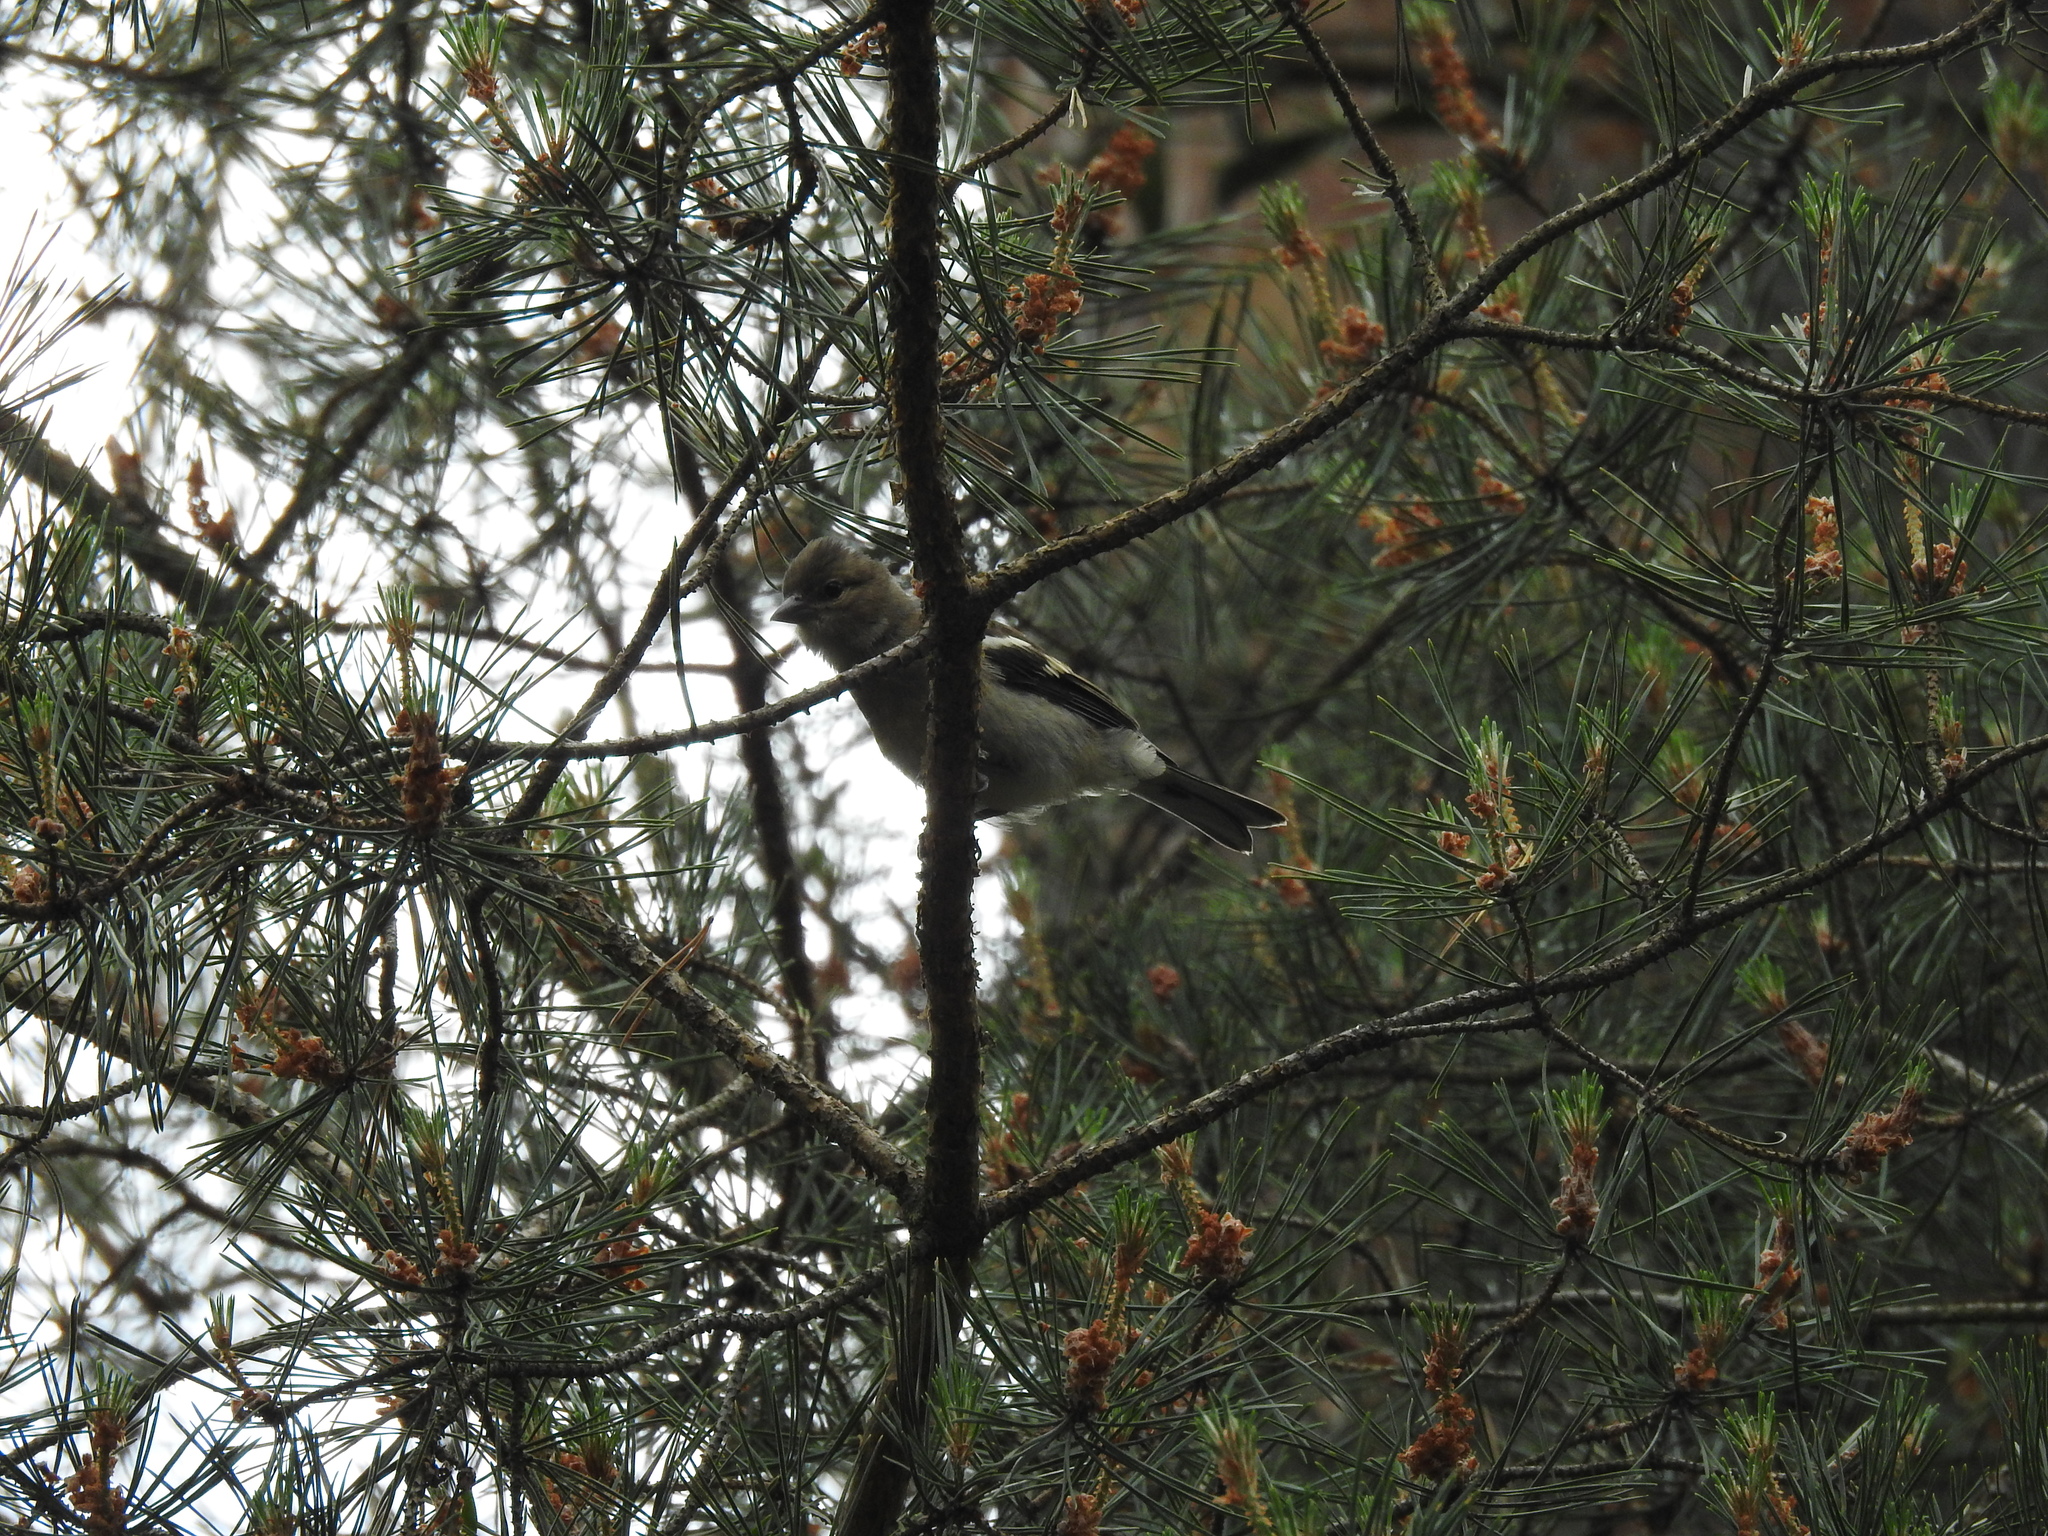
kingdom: Animalia
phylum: Chordata
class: Aves
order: Passeriformes
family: Fringillidae
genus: Fringilla
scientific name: Fringilla coelebs
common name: Common chaffinch
